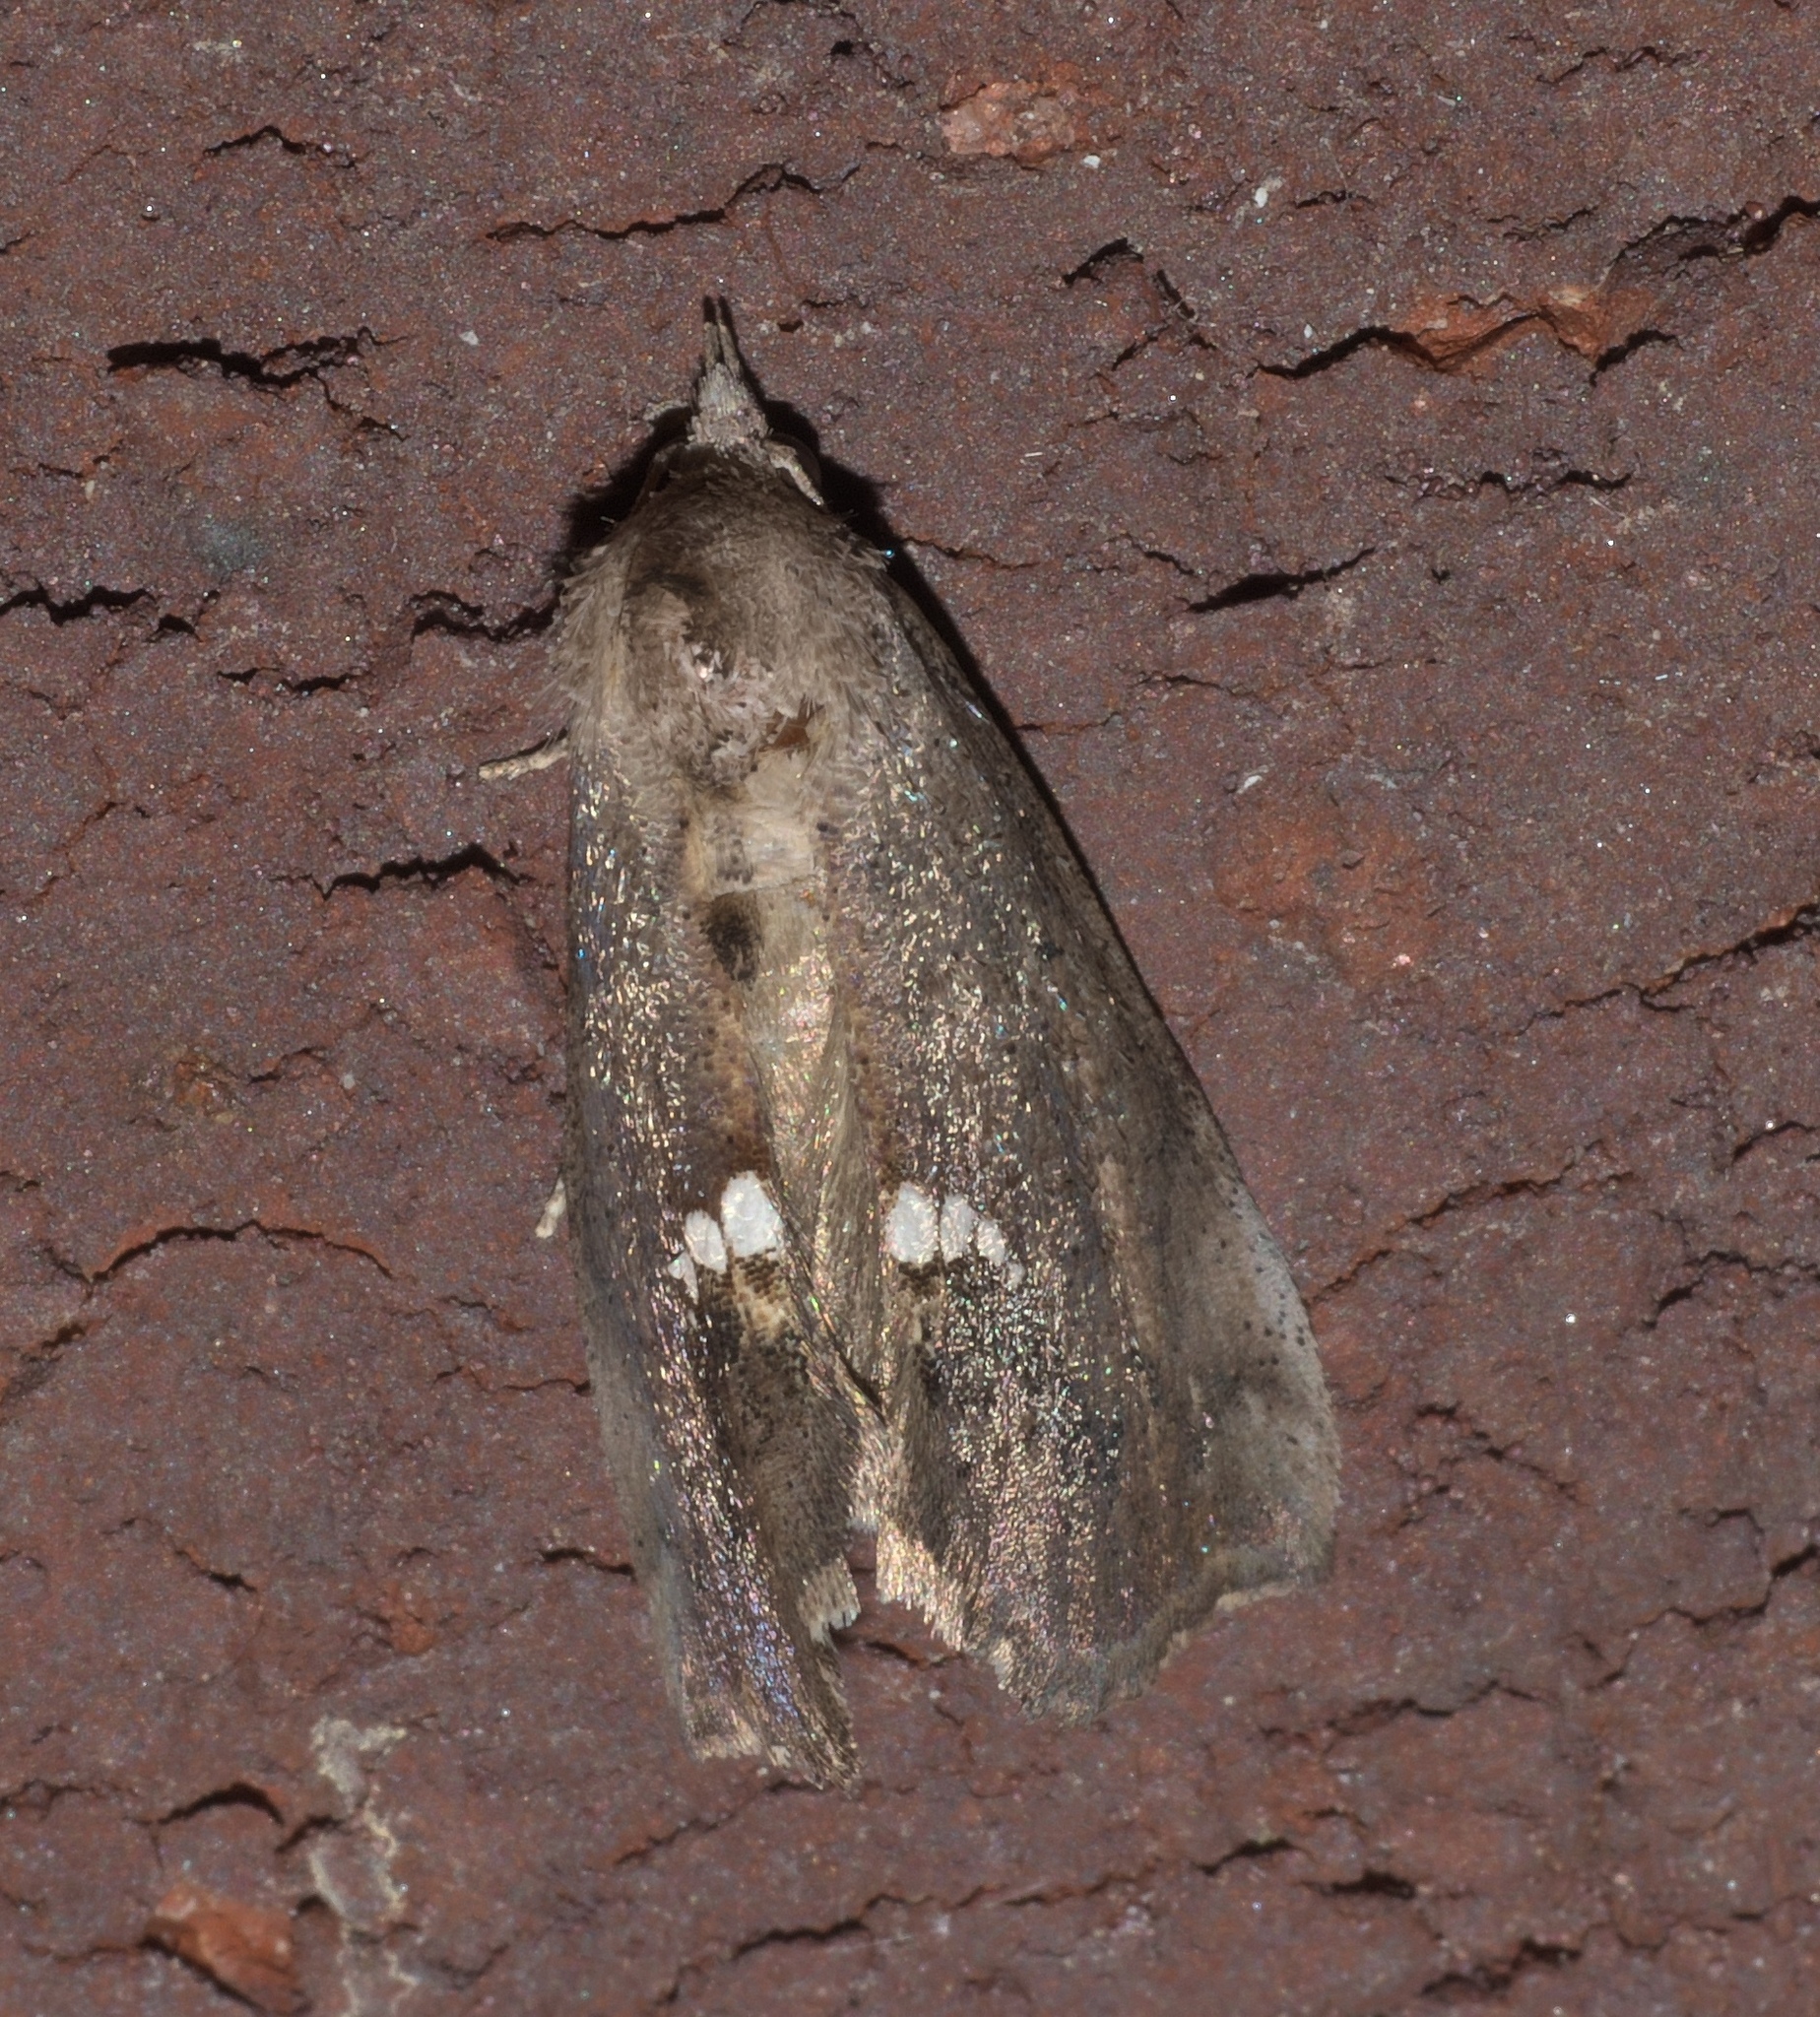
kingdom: Animalia
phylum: Arthropoda
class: Insecta
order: Lepidoptera
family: Erebidae
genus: Hypsoropha
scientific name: Hypsoropha hormos
